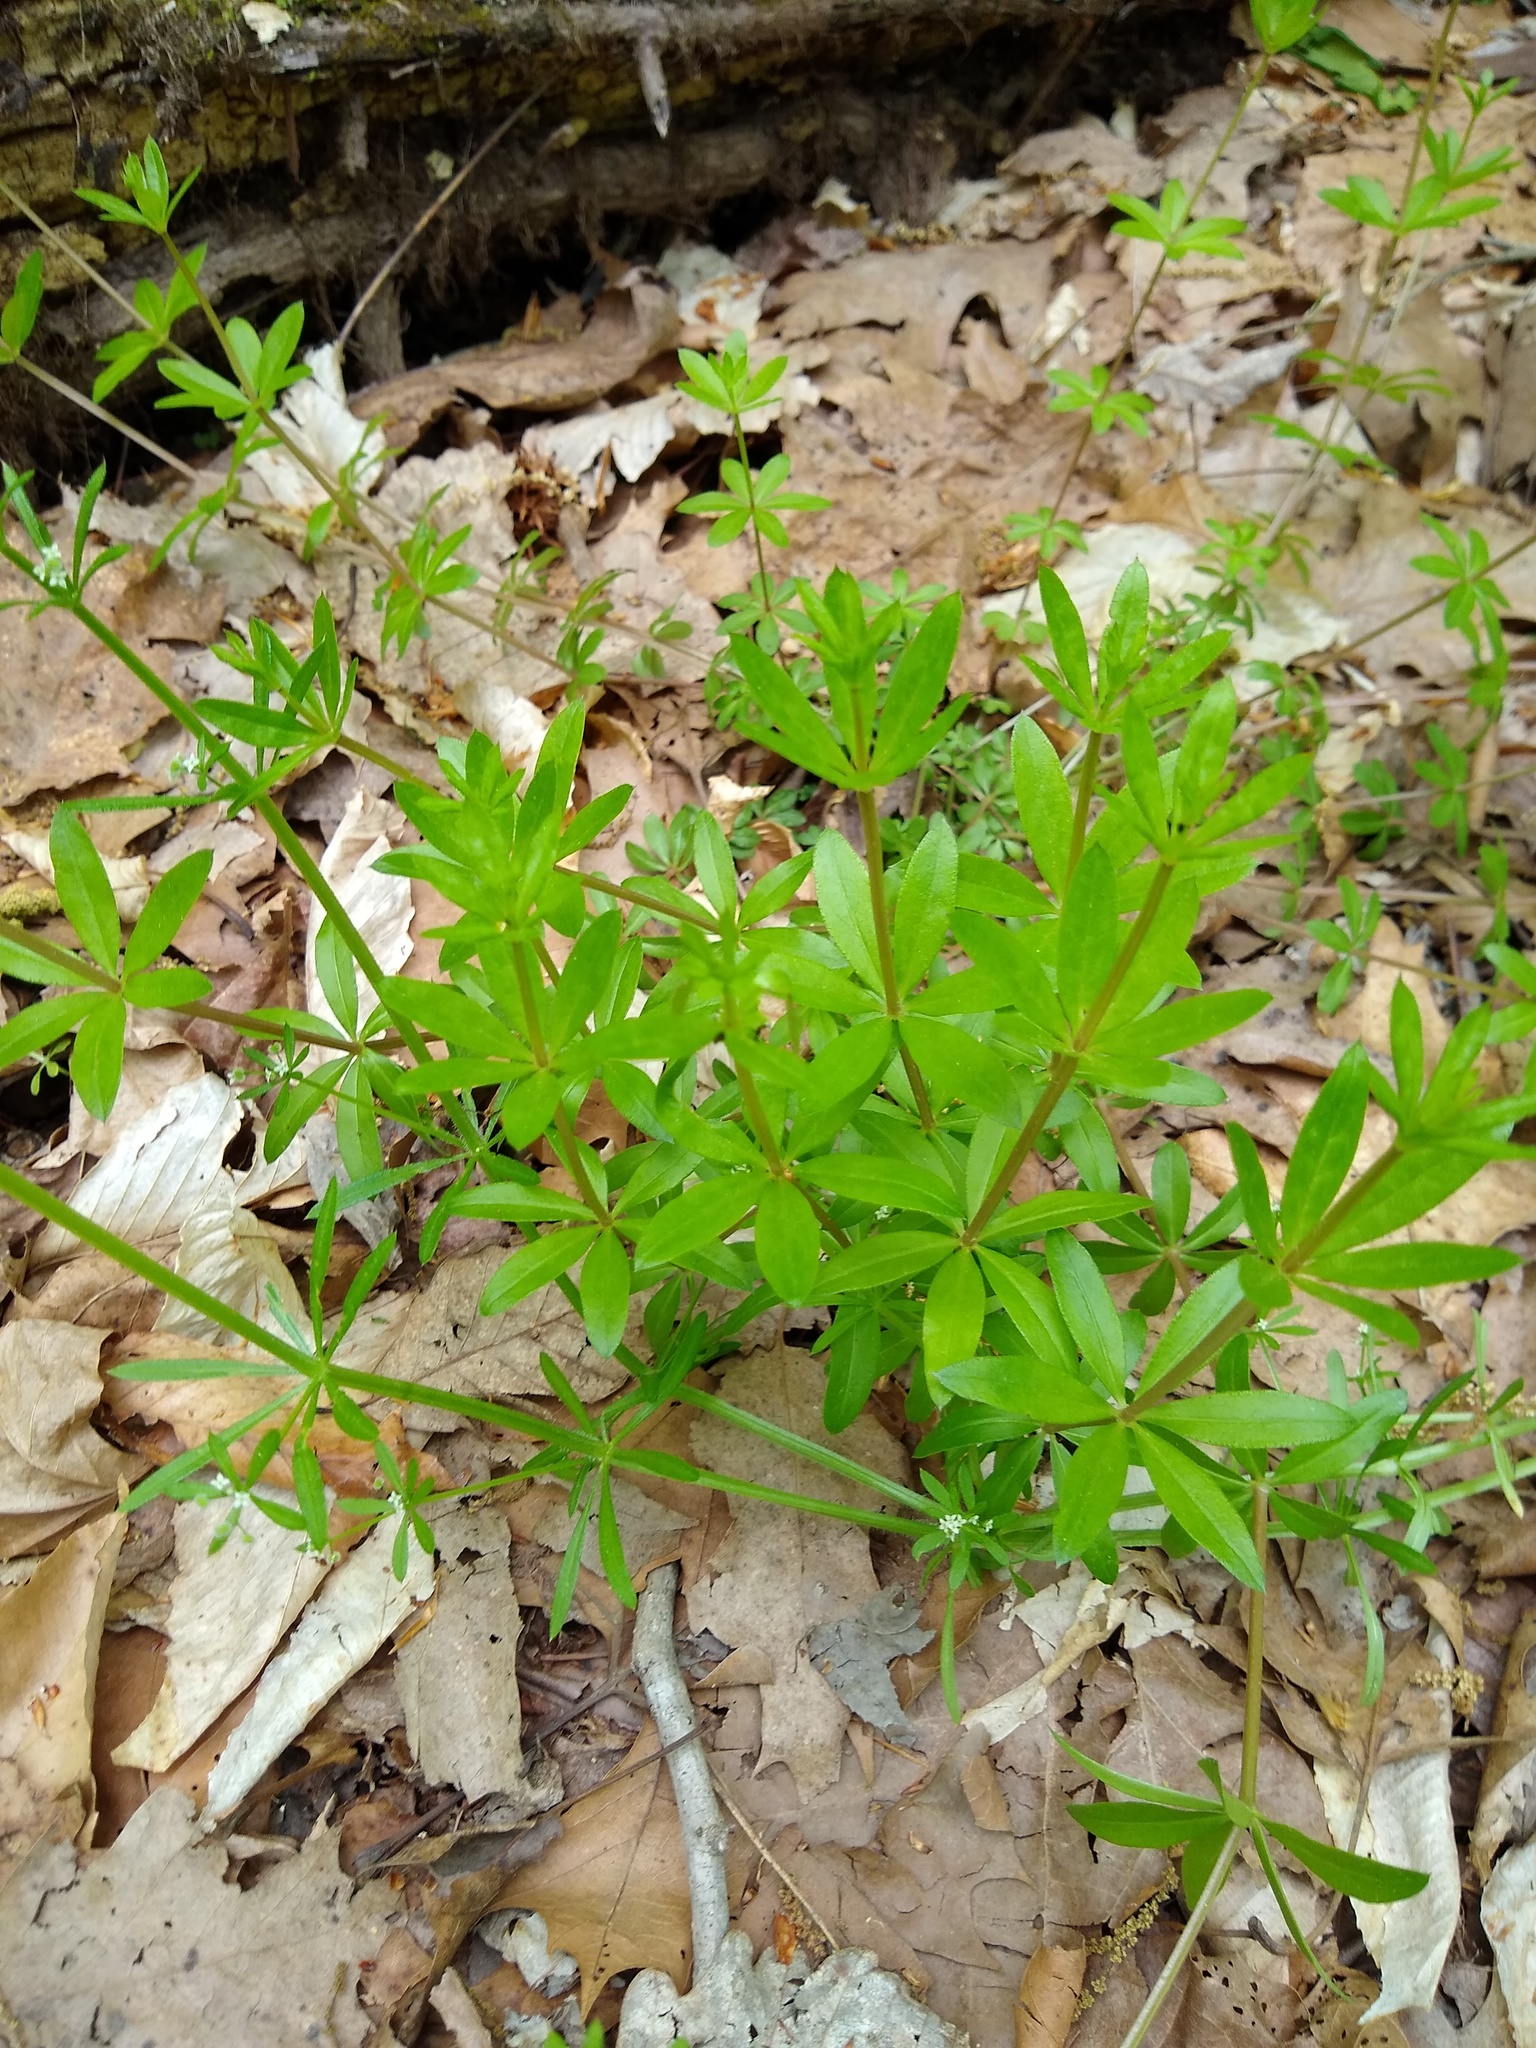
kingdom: Plantae
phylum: Tracheophyta
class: Magnoliopsida
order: Gentianales
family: Rubiaceae
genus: Galium
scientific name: Galium triflorum
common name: Fragrant bedstraw
